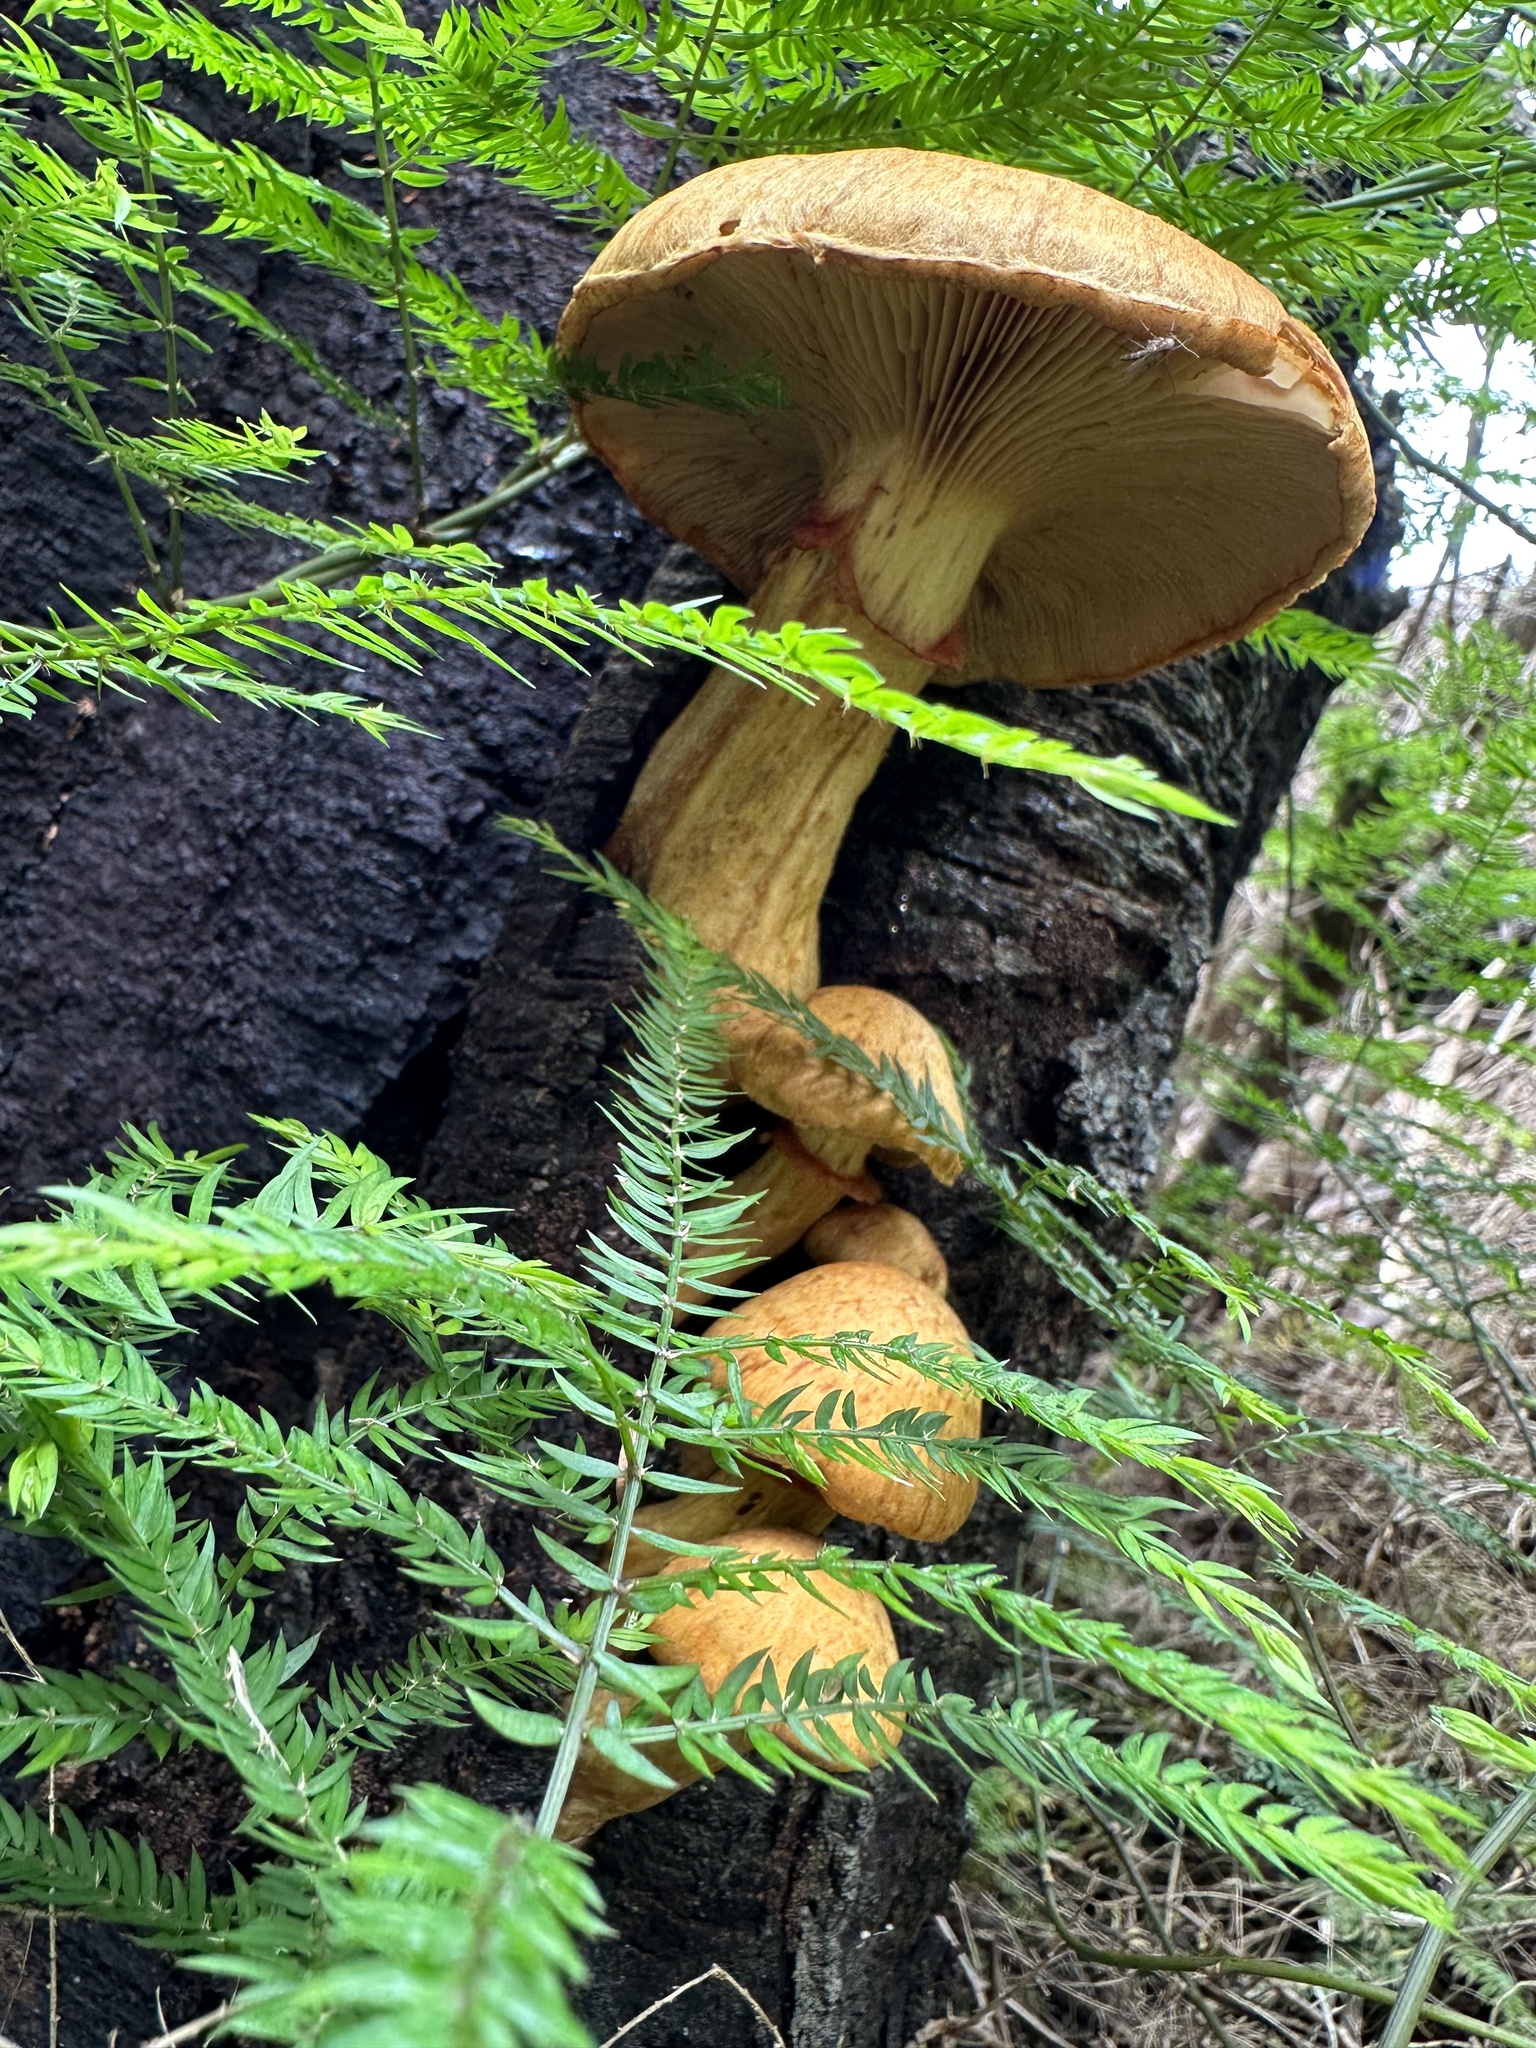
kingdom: Fungi
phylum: Basidiomycota
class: Agaricomycetes
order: Agaricales
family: Hymenogastraceae
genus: Gymnopilus
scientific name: Gymnopilus junonius
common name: Spectacular rustgill
